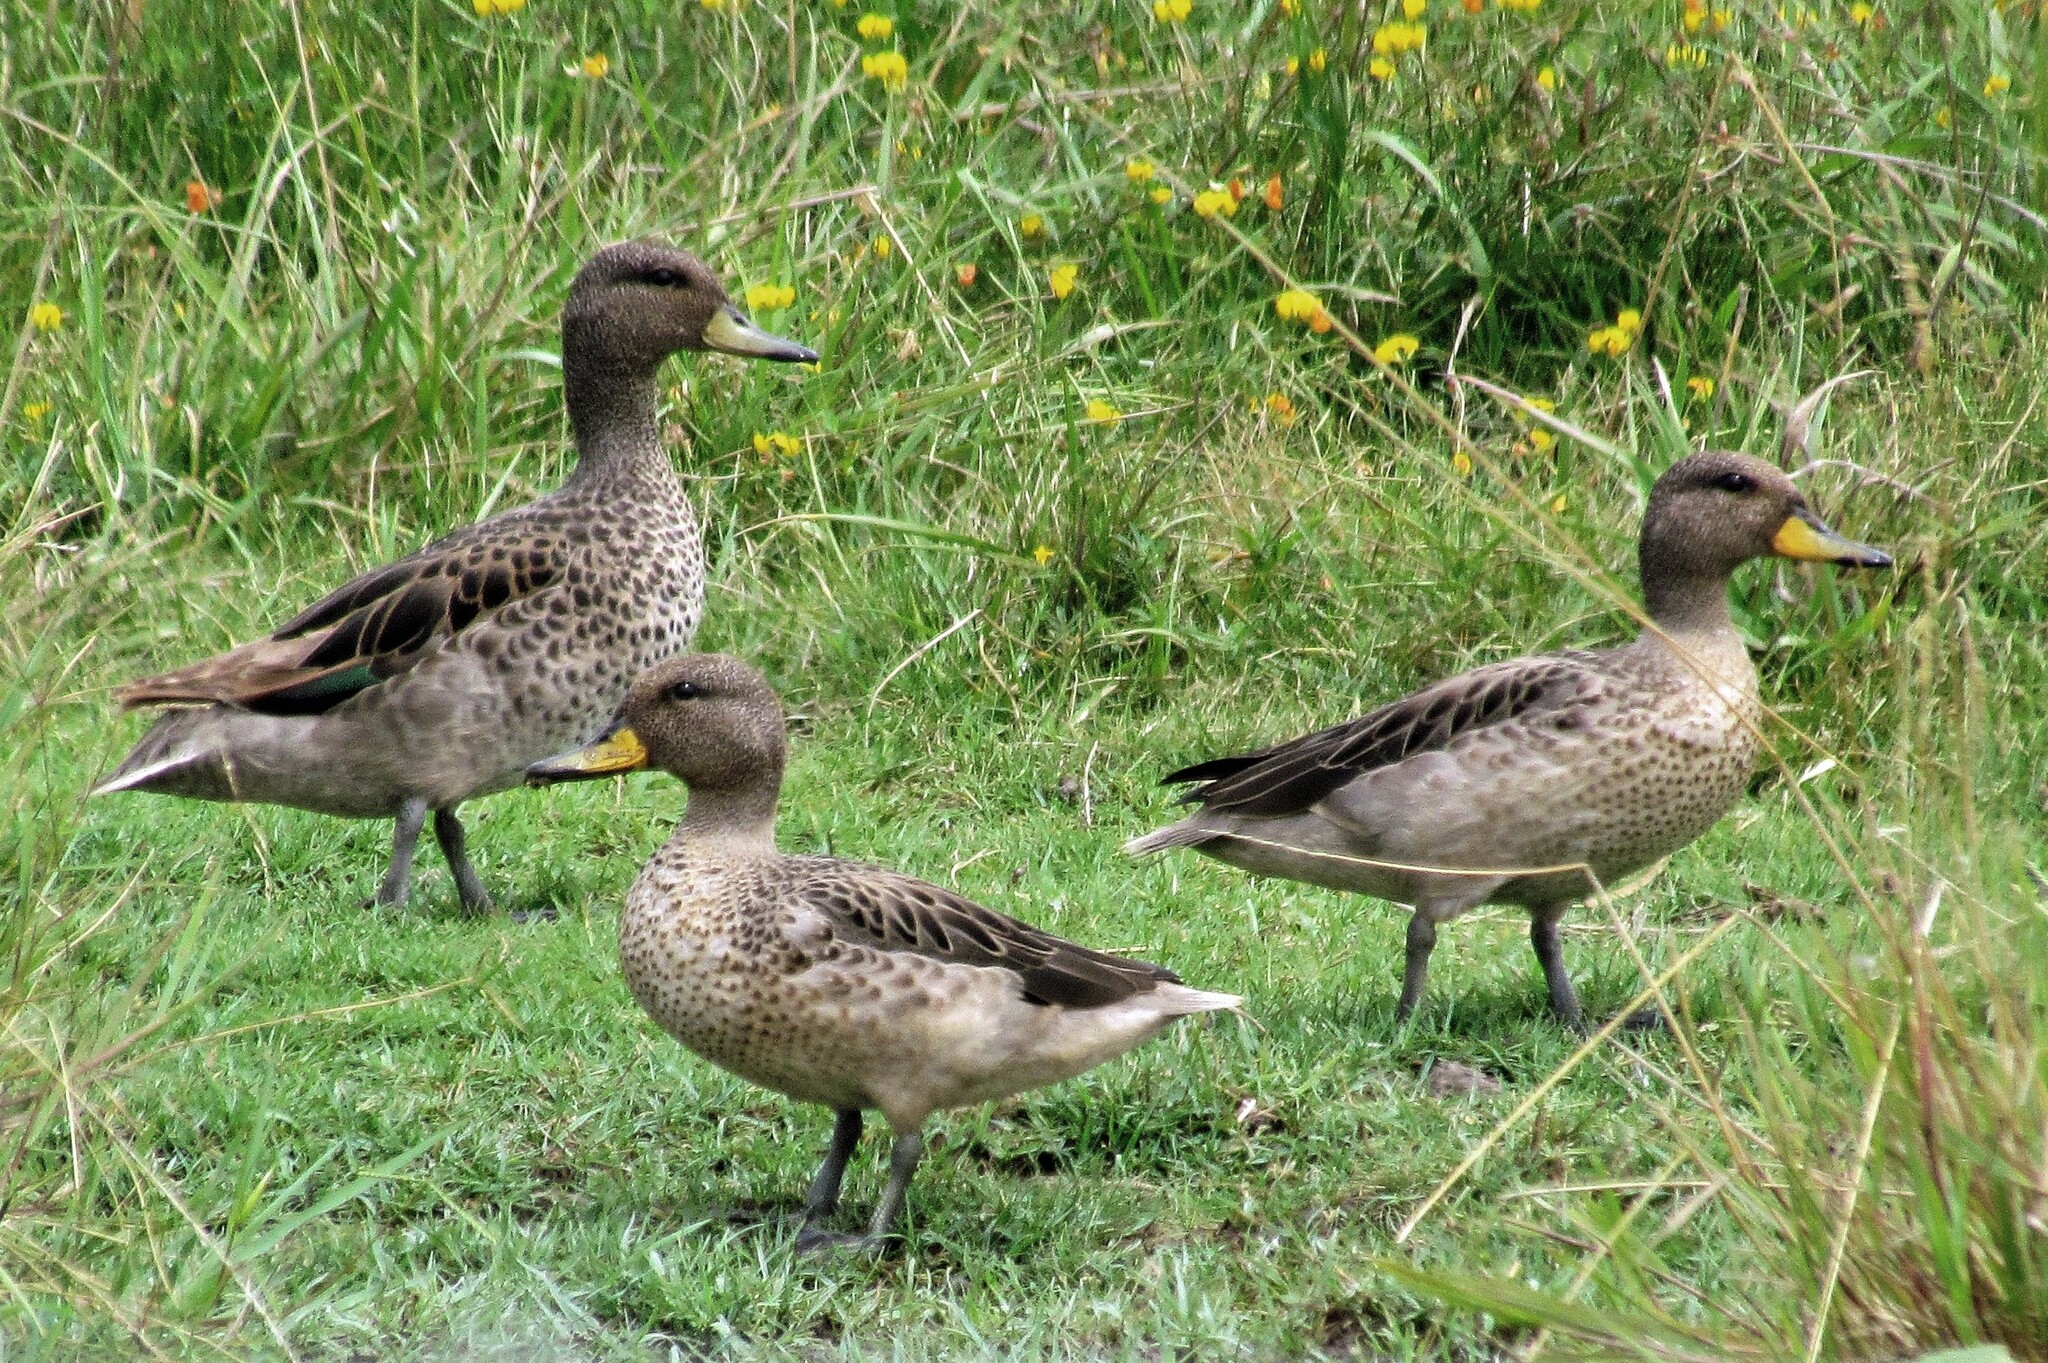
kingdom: Animalia
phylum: Chordata
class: Aves
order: Anseriformes
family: Anatidae
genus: Anas
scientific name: Anas flavirostris
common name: Yellow-billed teal
